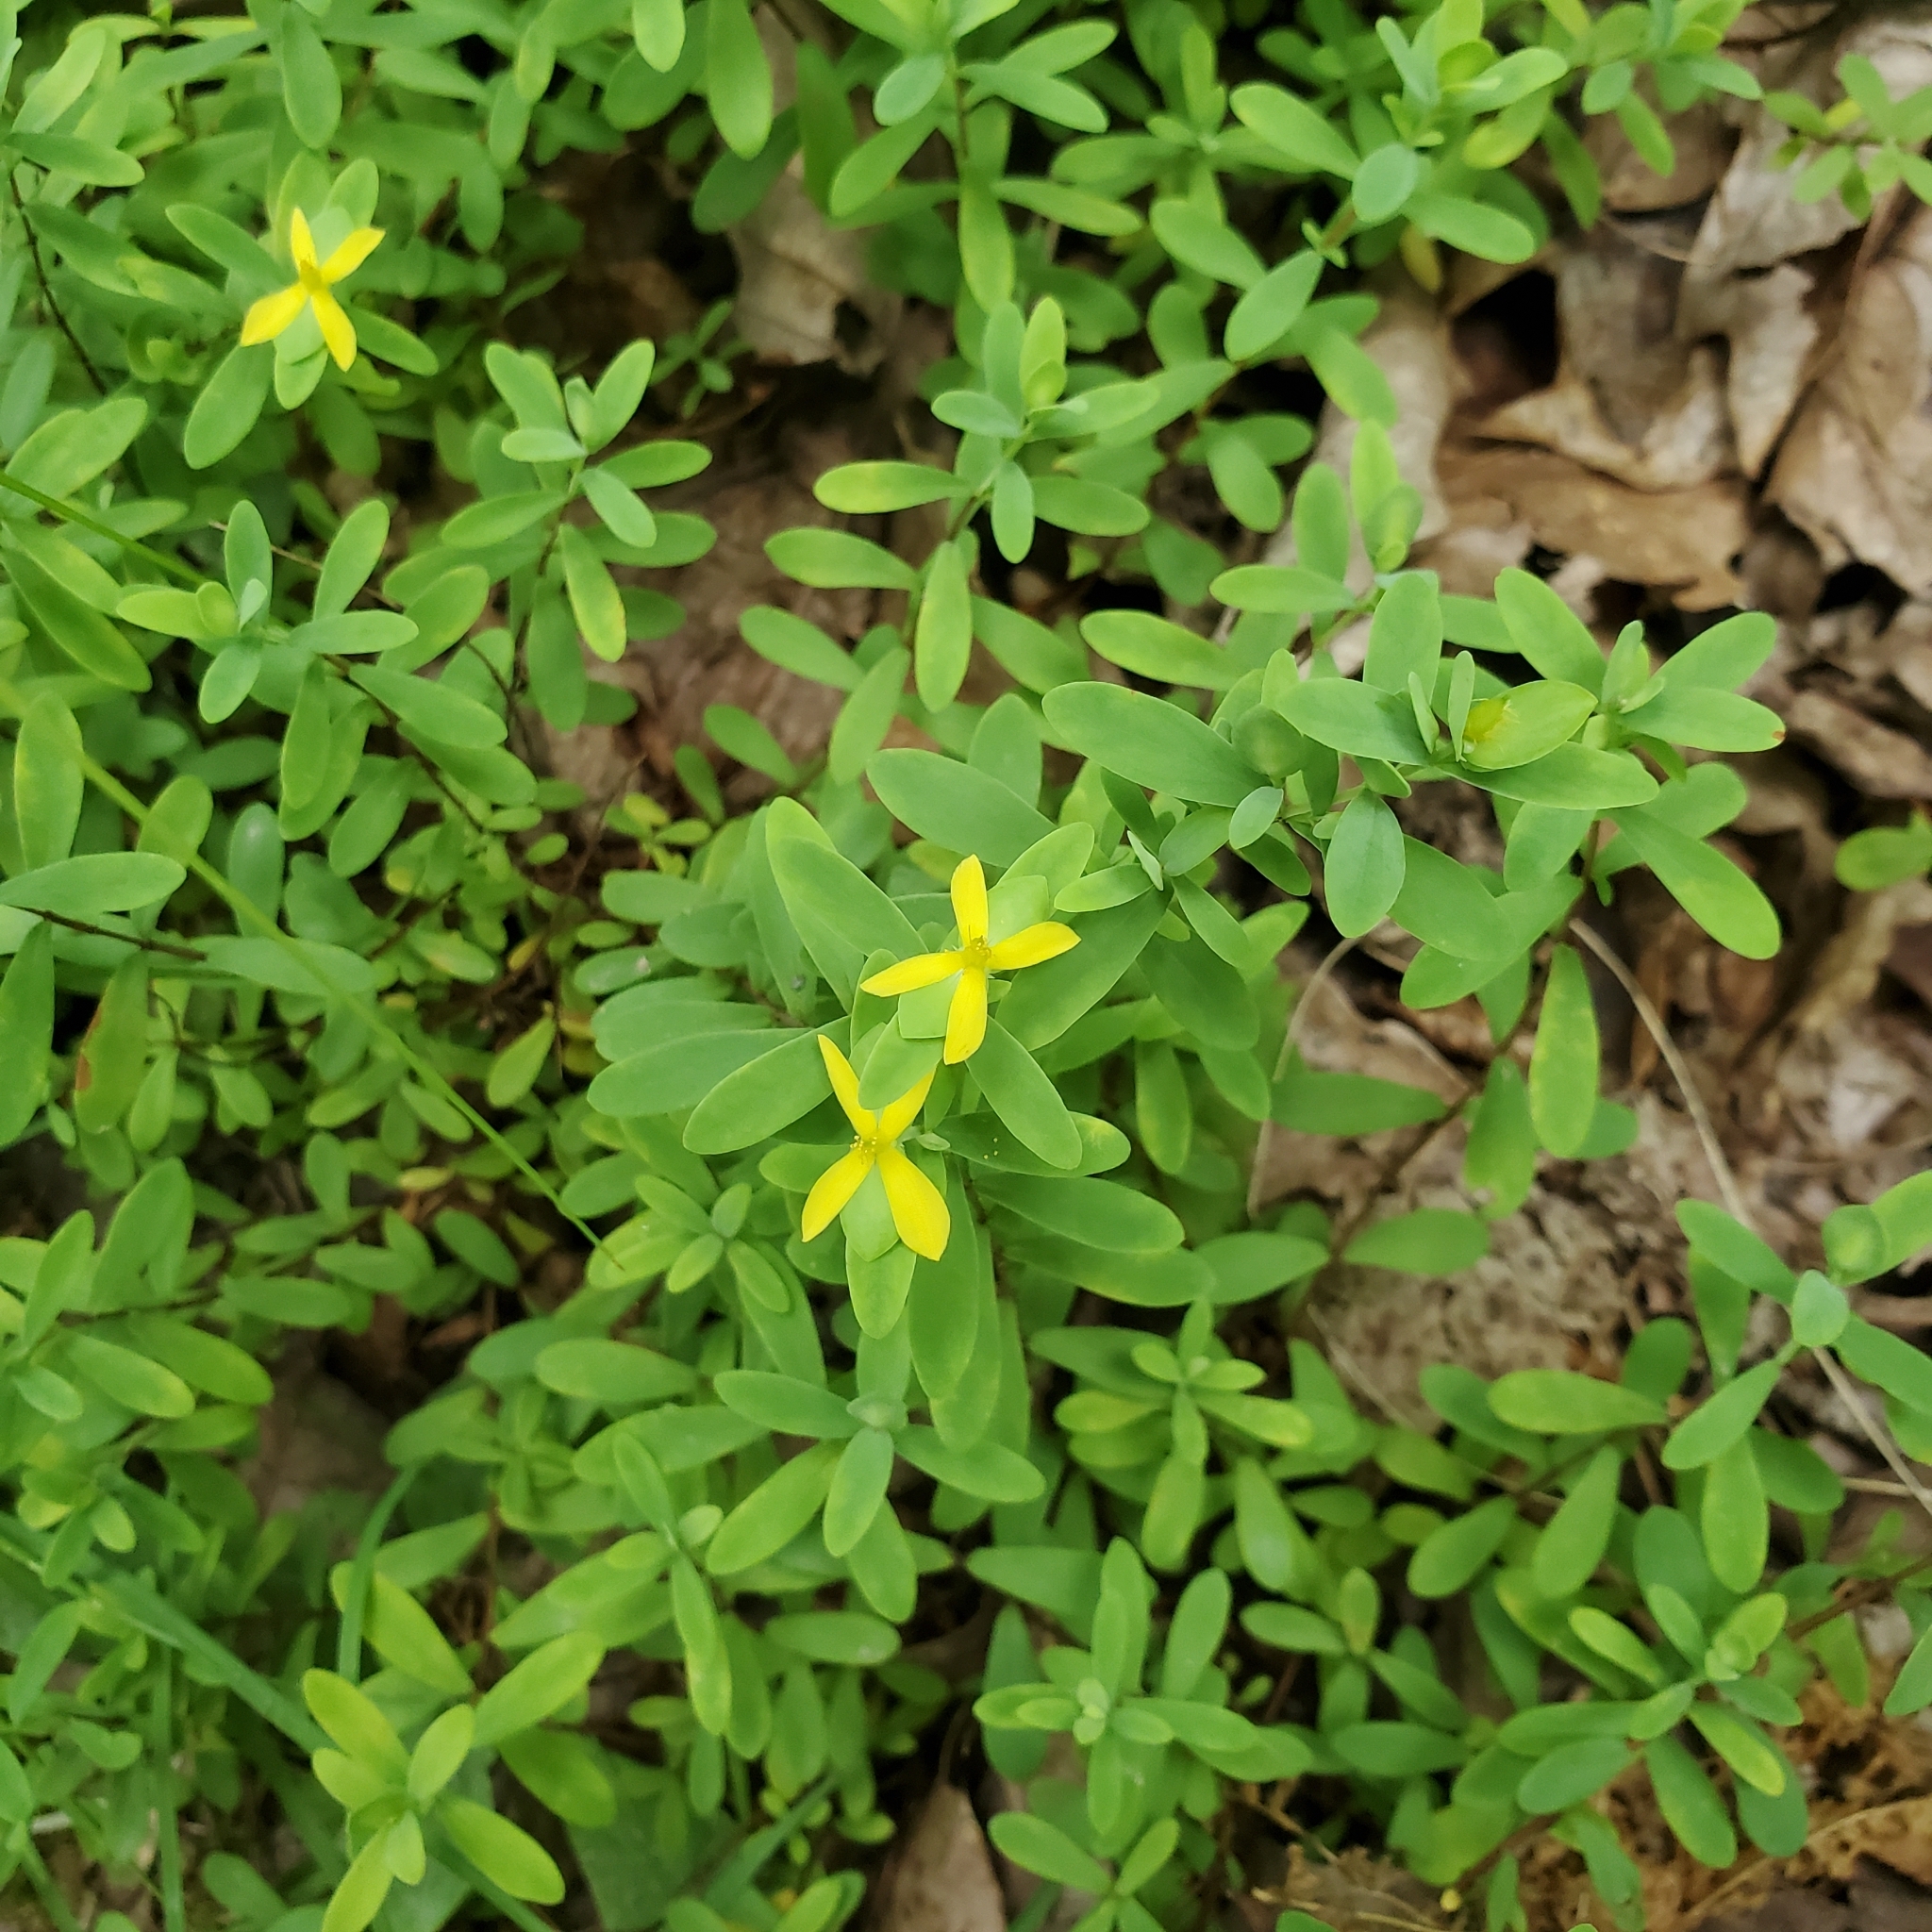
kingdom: Plantae
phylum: Tracheophyta
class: Magnoliopsida
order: Malpighiales
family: Hypericaceae
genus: Hypericum
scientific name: Hypericum hypericoides
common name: St. andrew's cross
